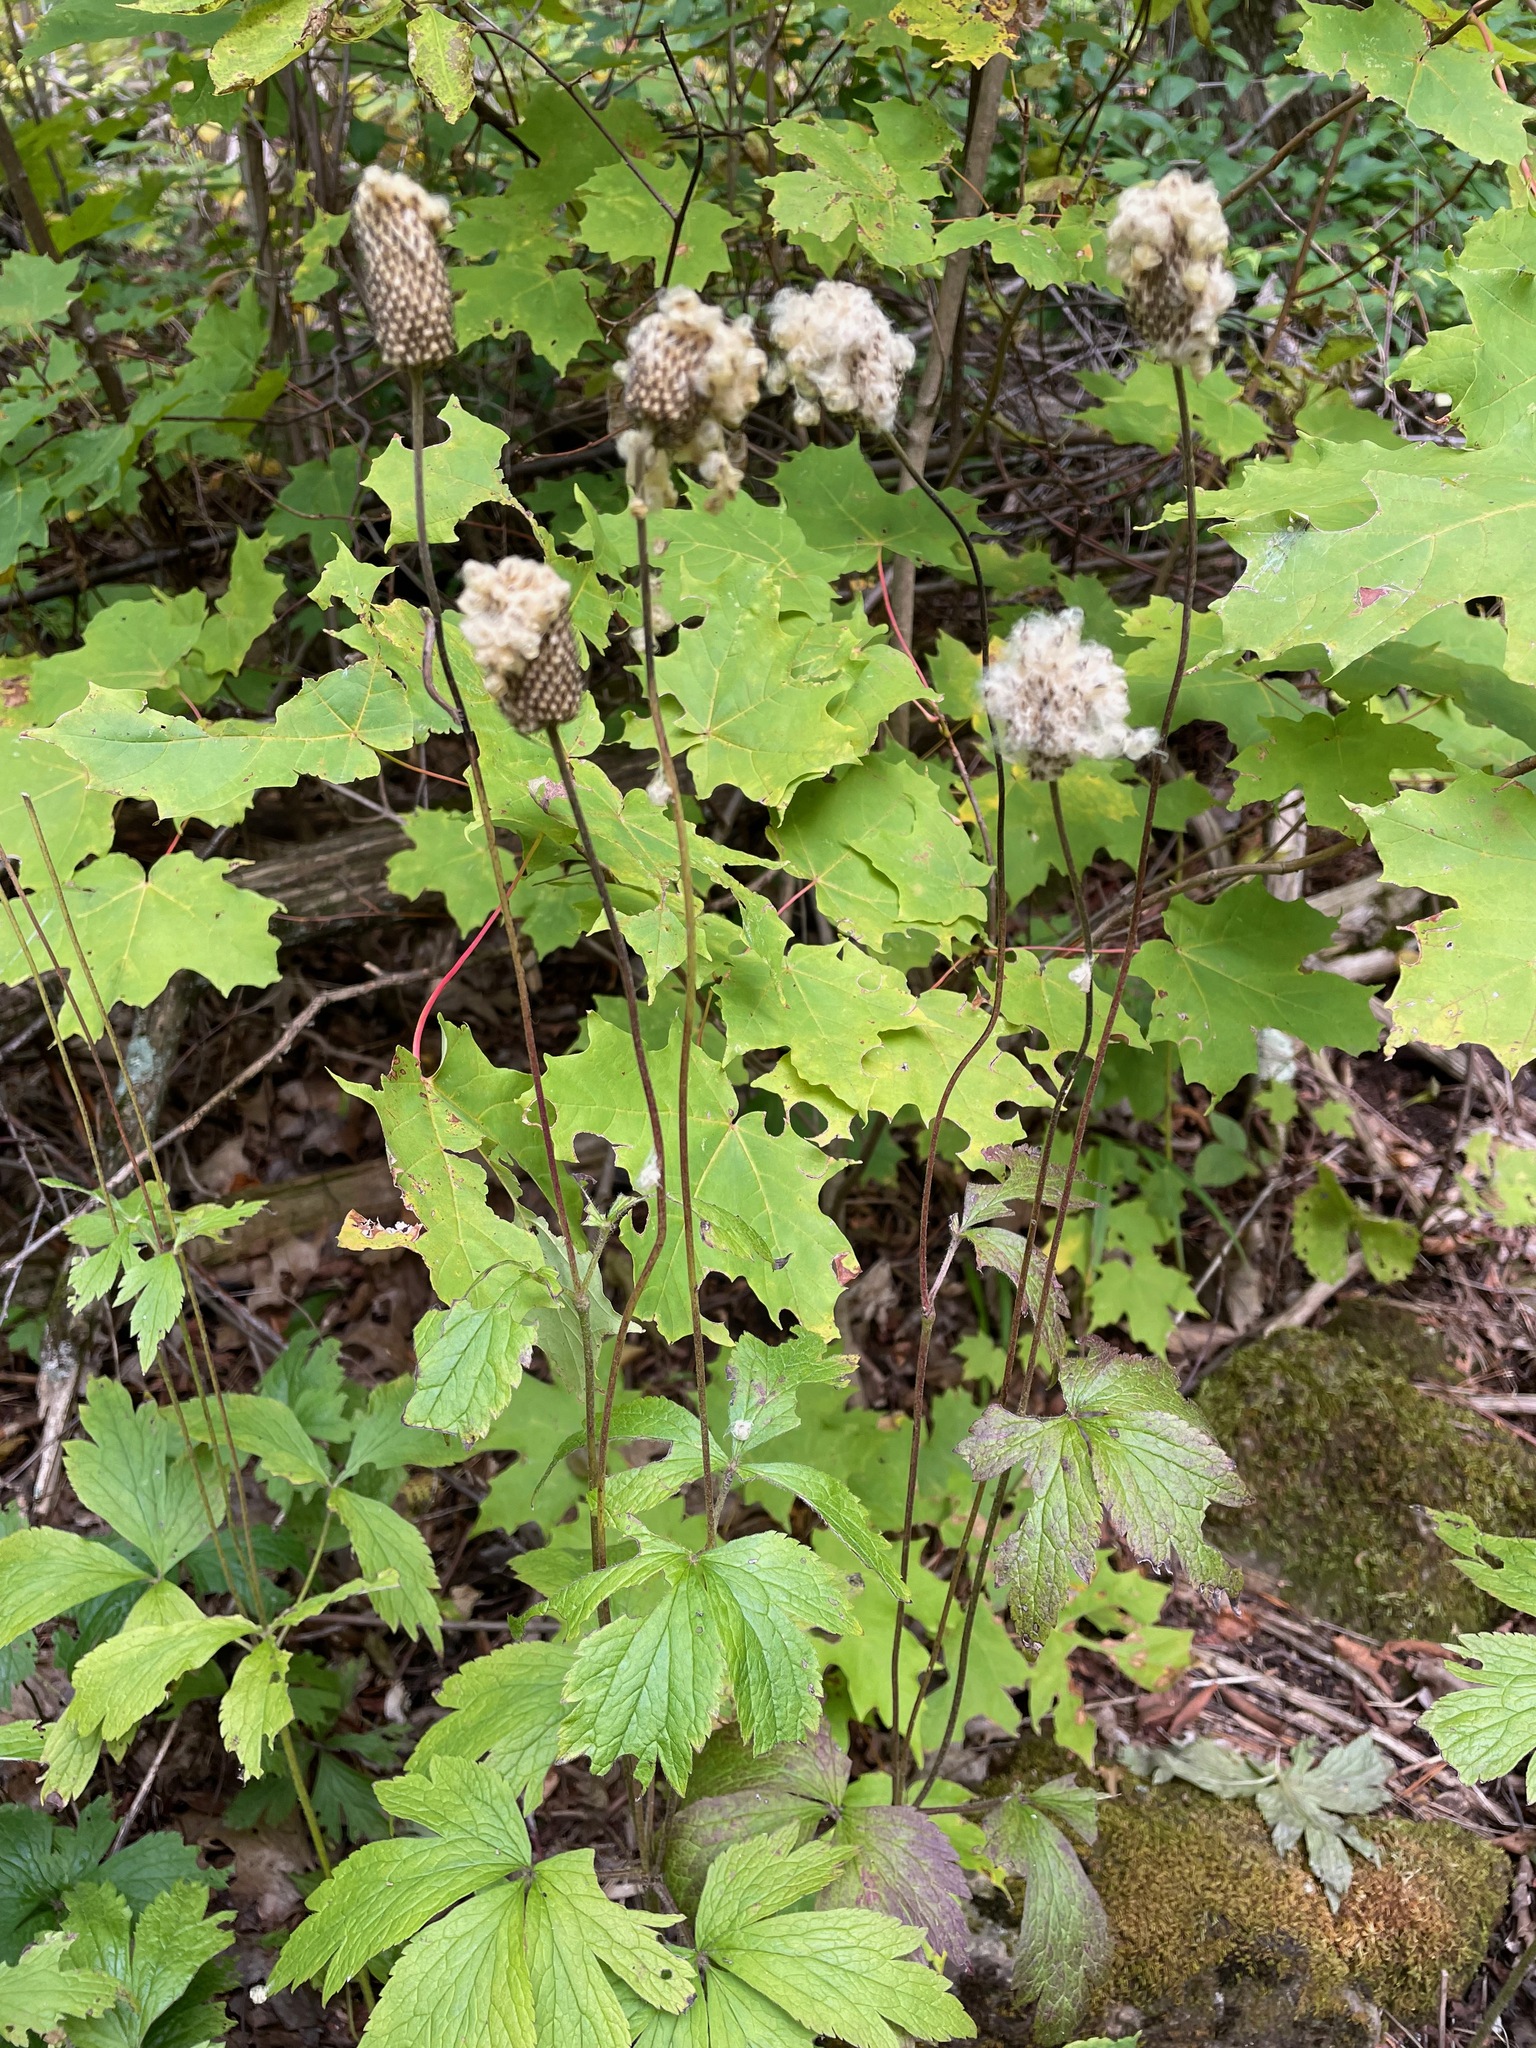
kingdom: Plantae
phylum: Tracheophyta
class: Magnoliopsida
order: Ranunculales
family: Ranunculaceae
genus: Anemone
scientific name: Anemone virginiana
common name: Tall anemone
